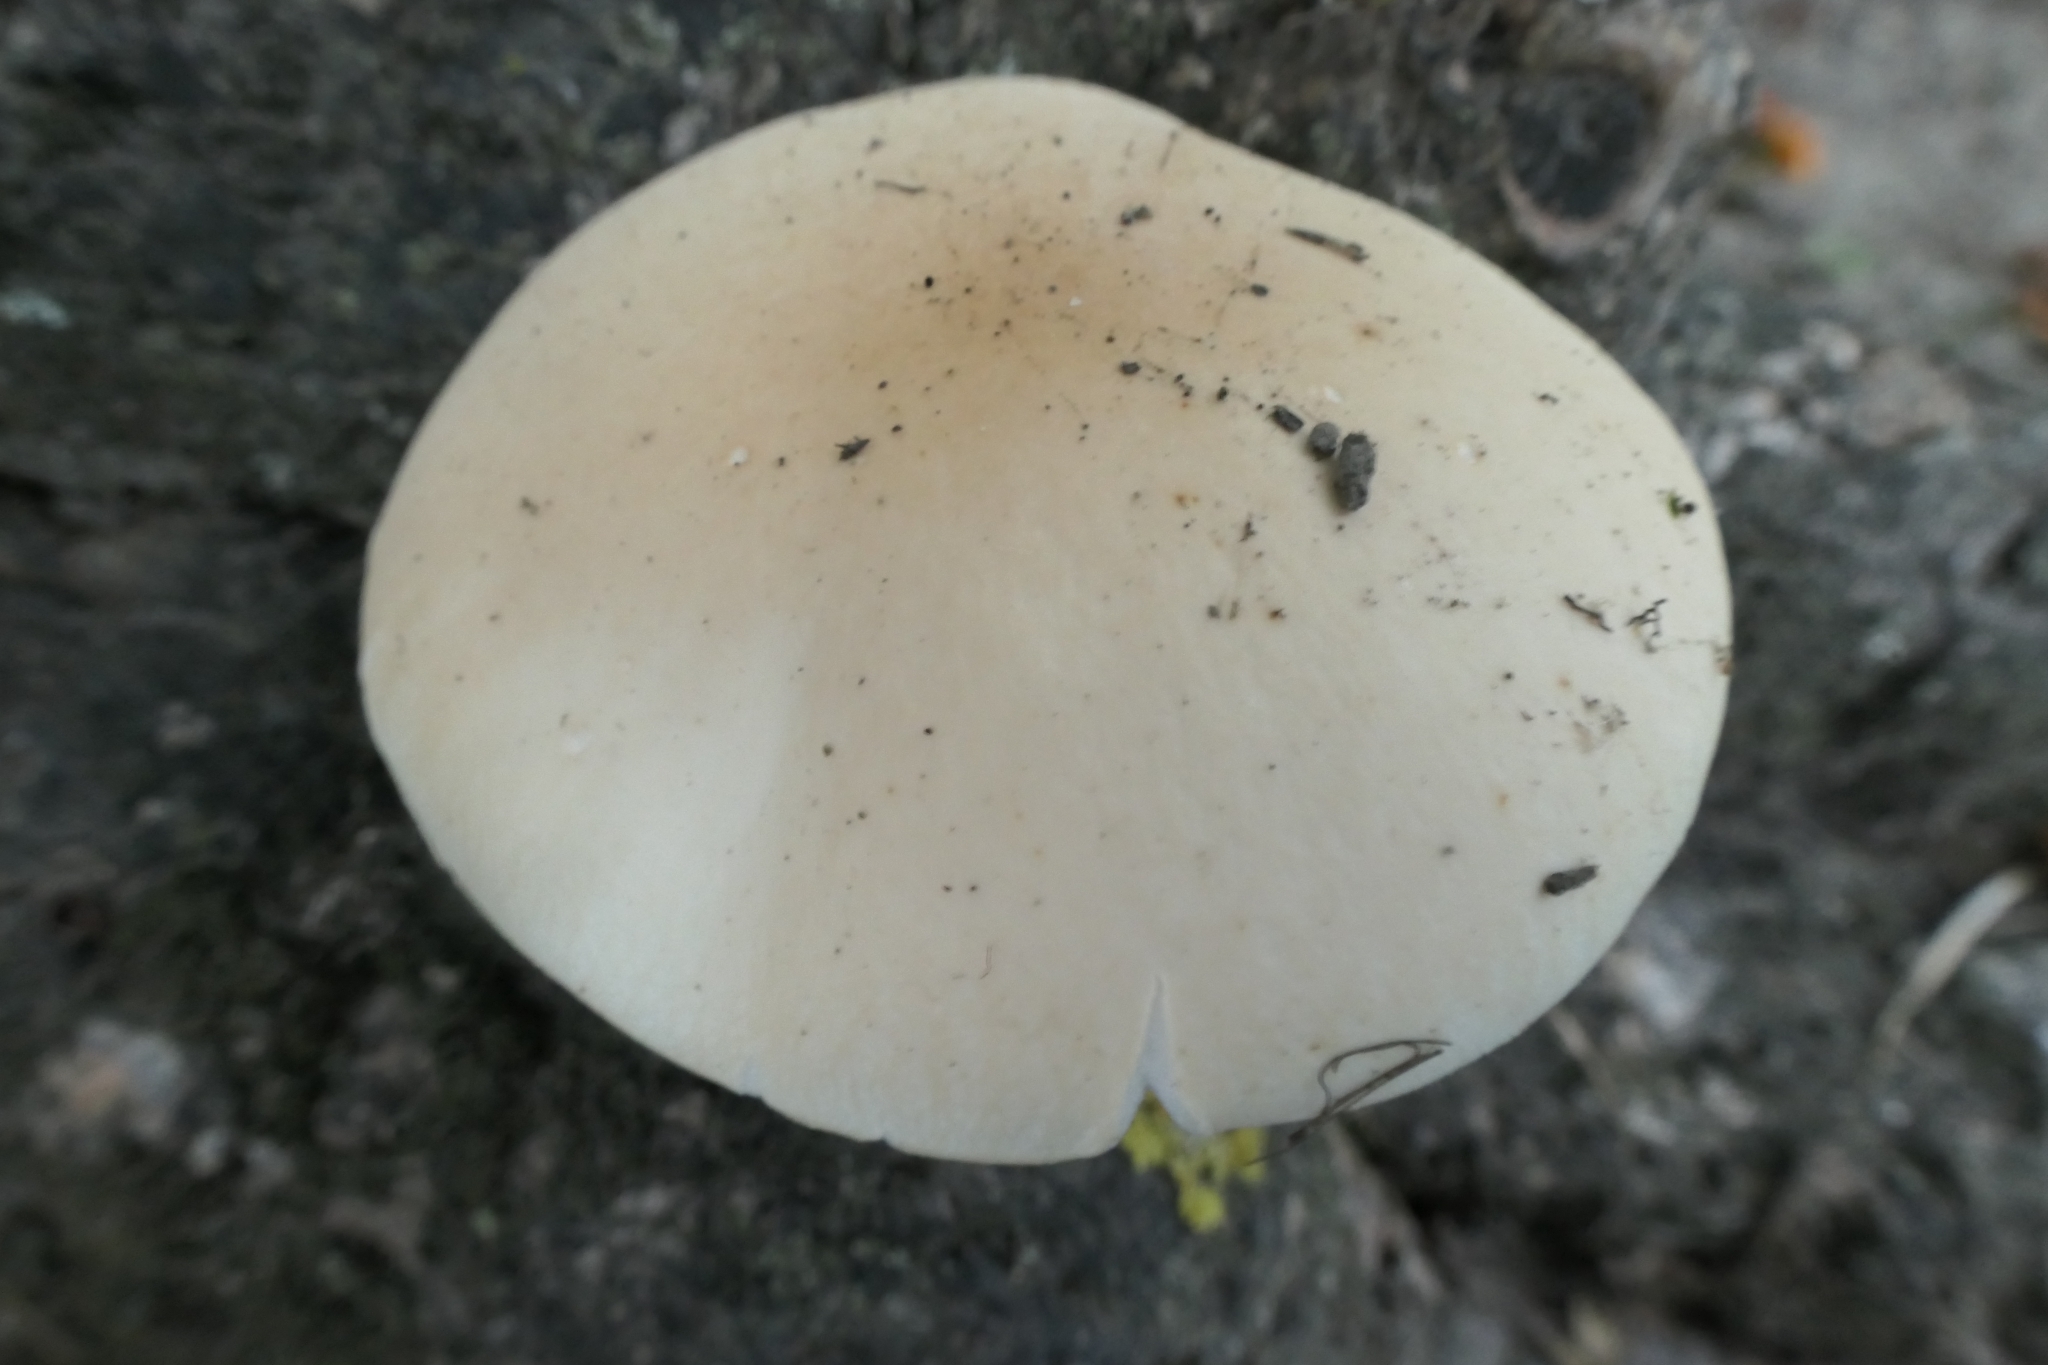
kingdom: Fungi
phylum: Basidiomycota
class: Agaricomycetes
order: Agaricales
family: Tubariaceae
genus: Cyclocybe
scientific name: Cyclocybe parasitica
